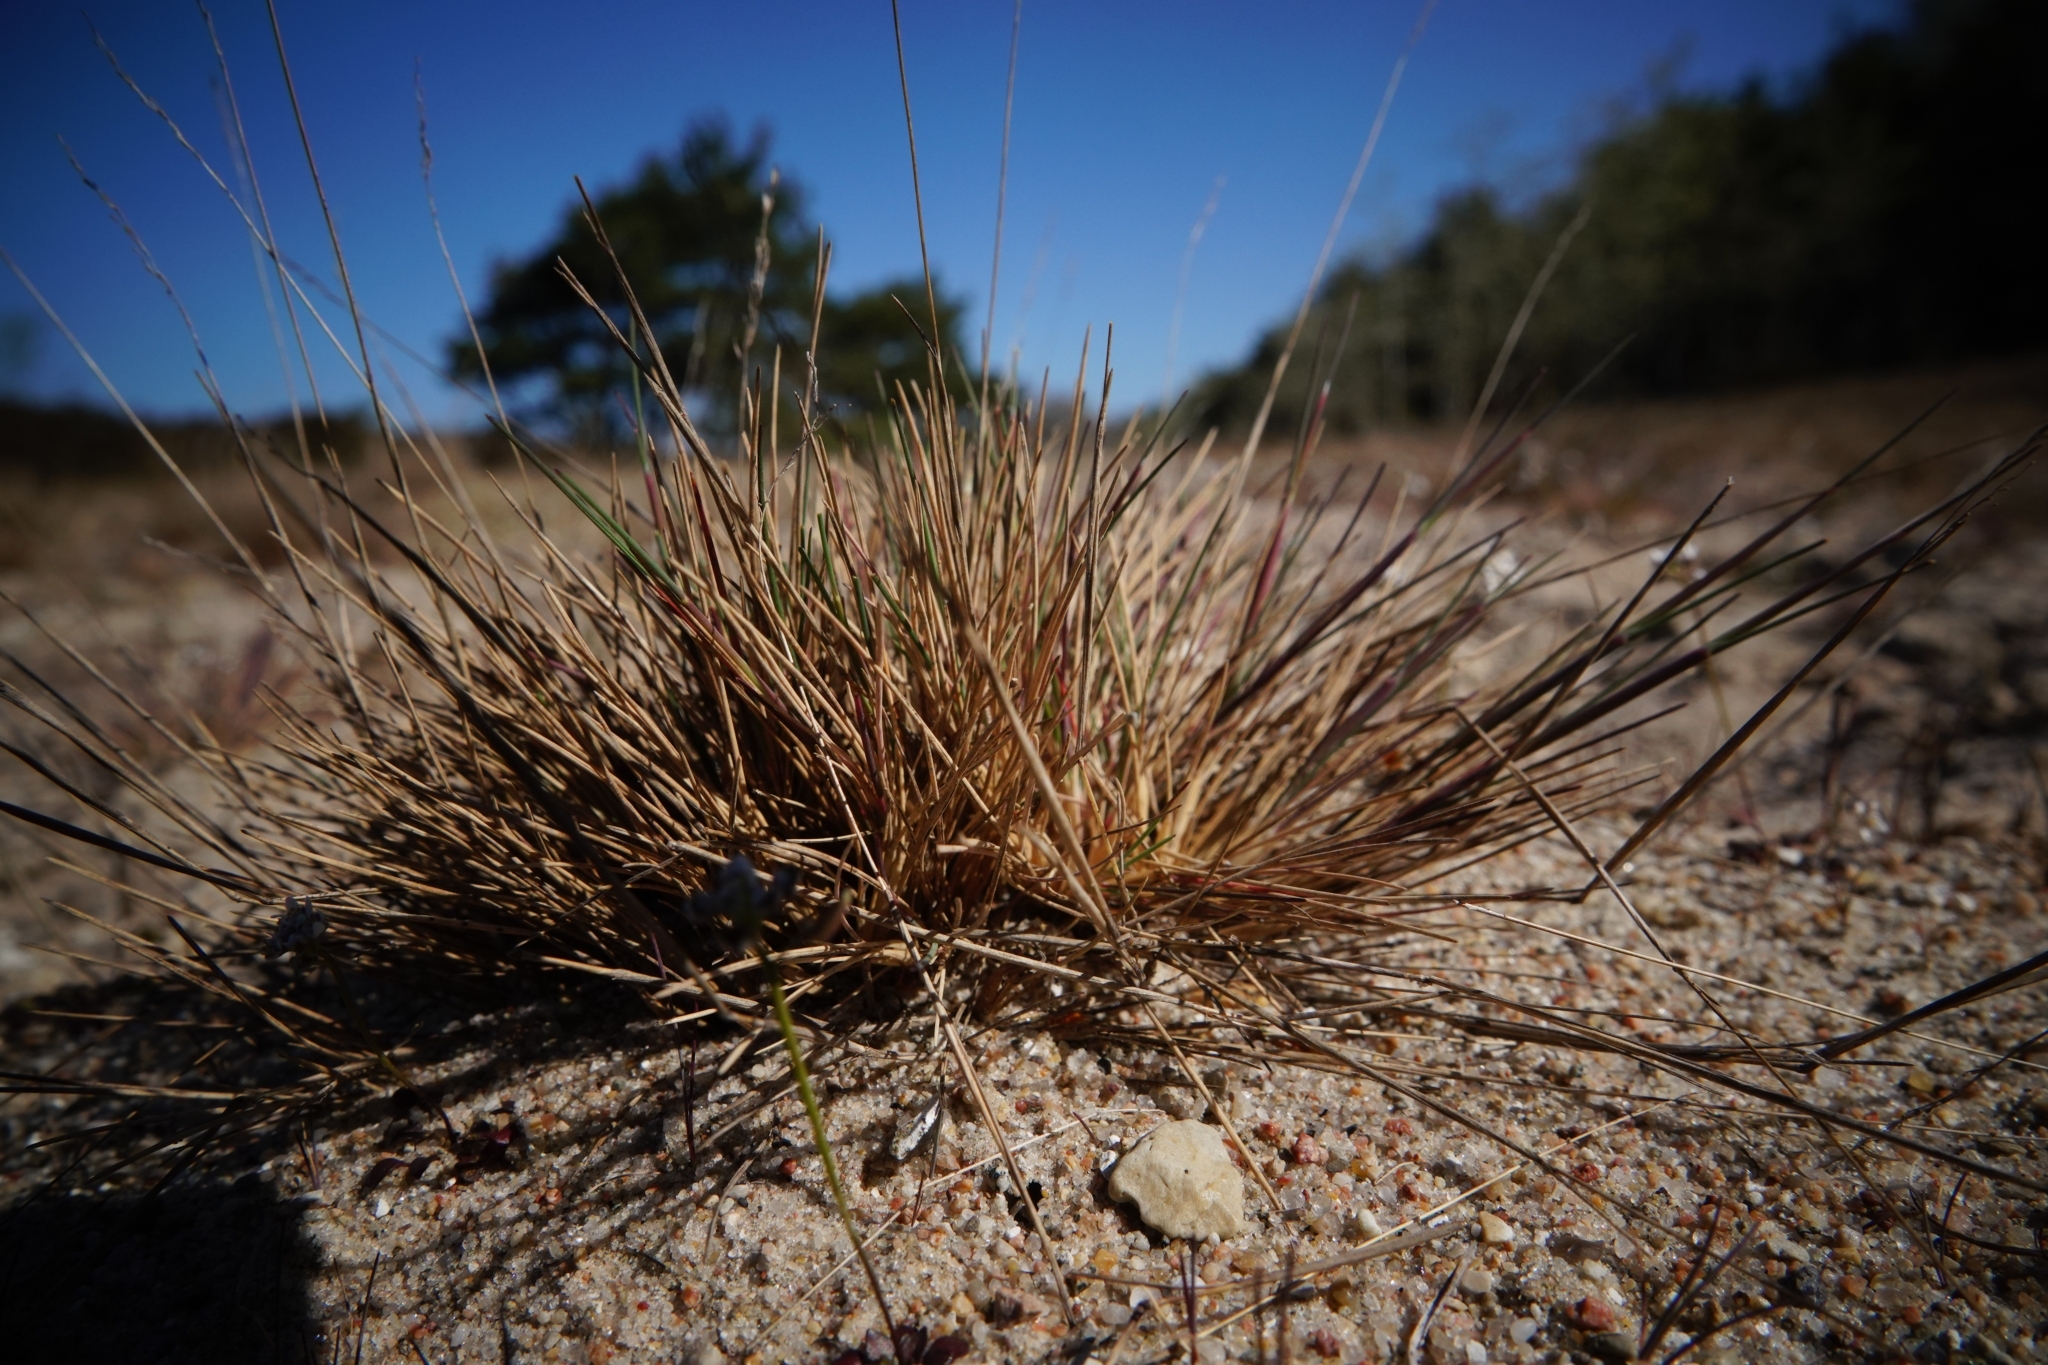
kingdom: Plantae
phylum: Tracheophyta
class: Liliopsida
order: Poales
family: Poaceae
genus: Corynephorus
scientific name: Corynephorus canescens
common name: Grey hair-grass
